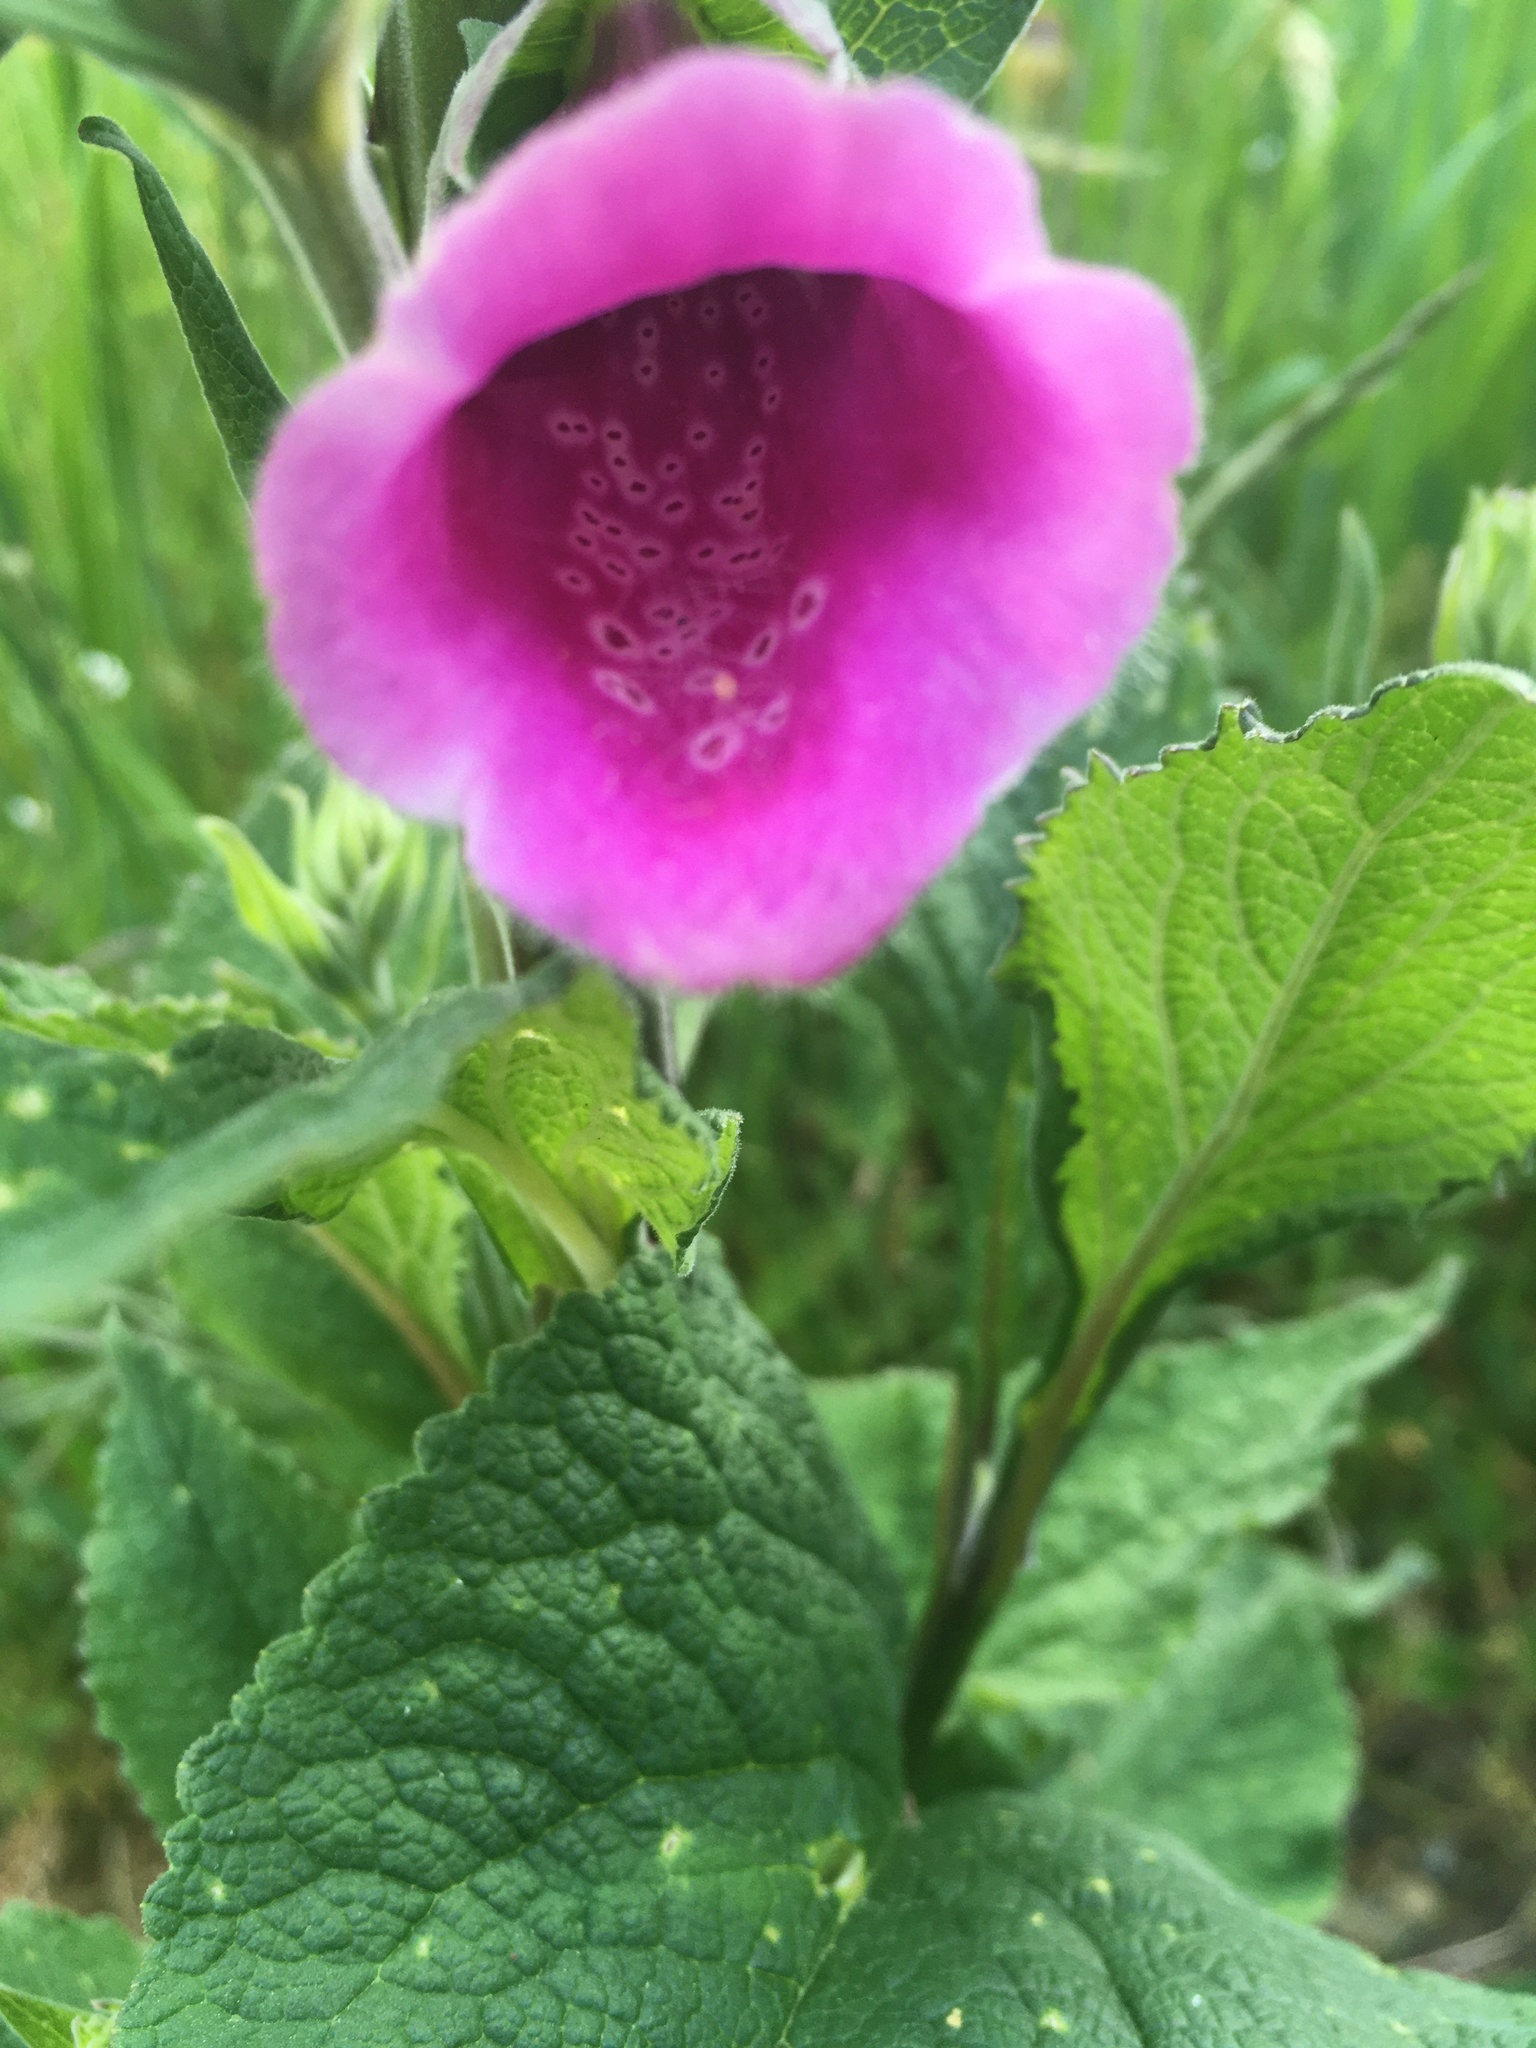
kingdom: Plantae
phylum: Tracheophyta
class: Magnoliopsida
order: Lamiales
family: Plantaginaceae
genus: Digitalis
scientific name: Digitalis purpurea
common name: Foxglove
